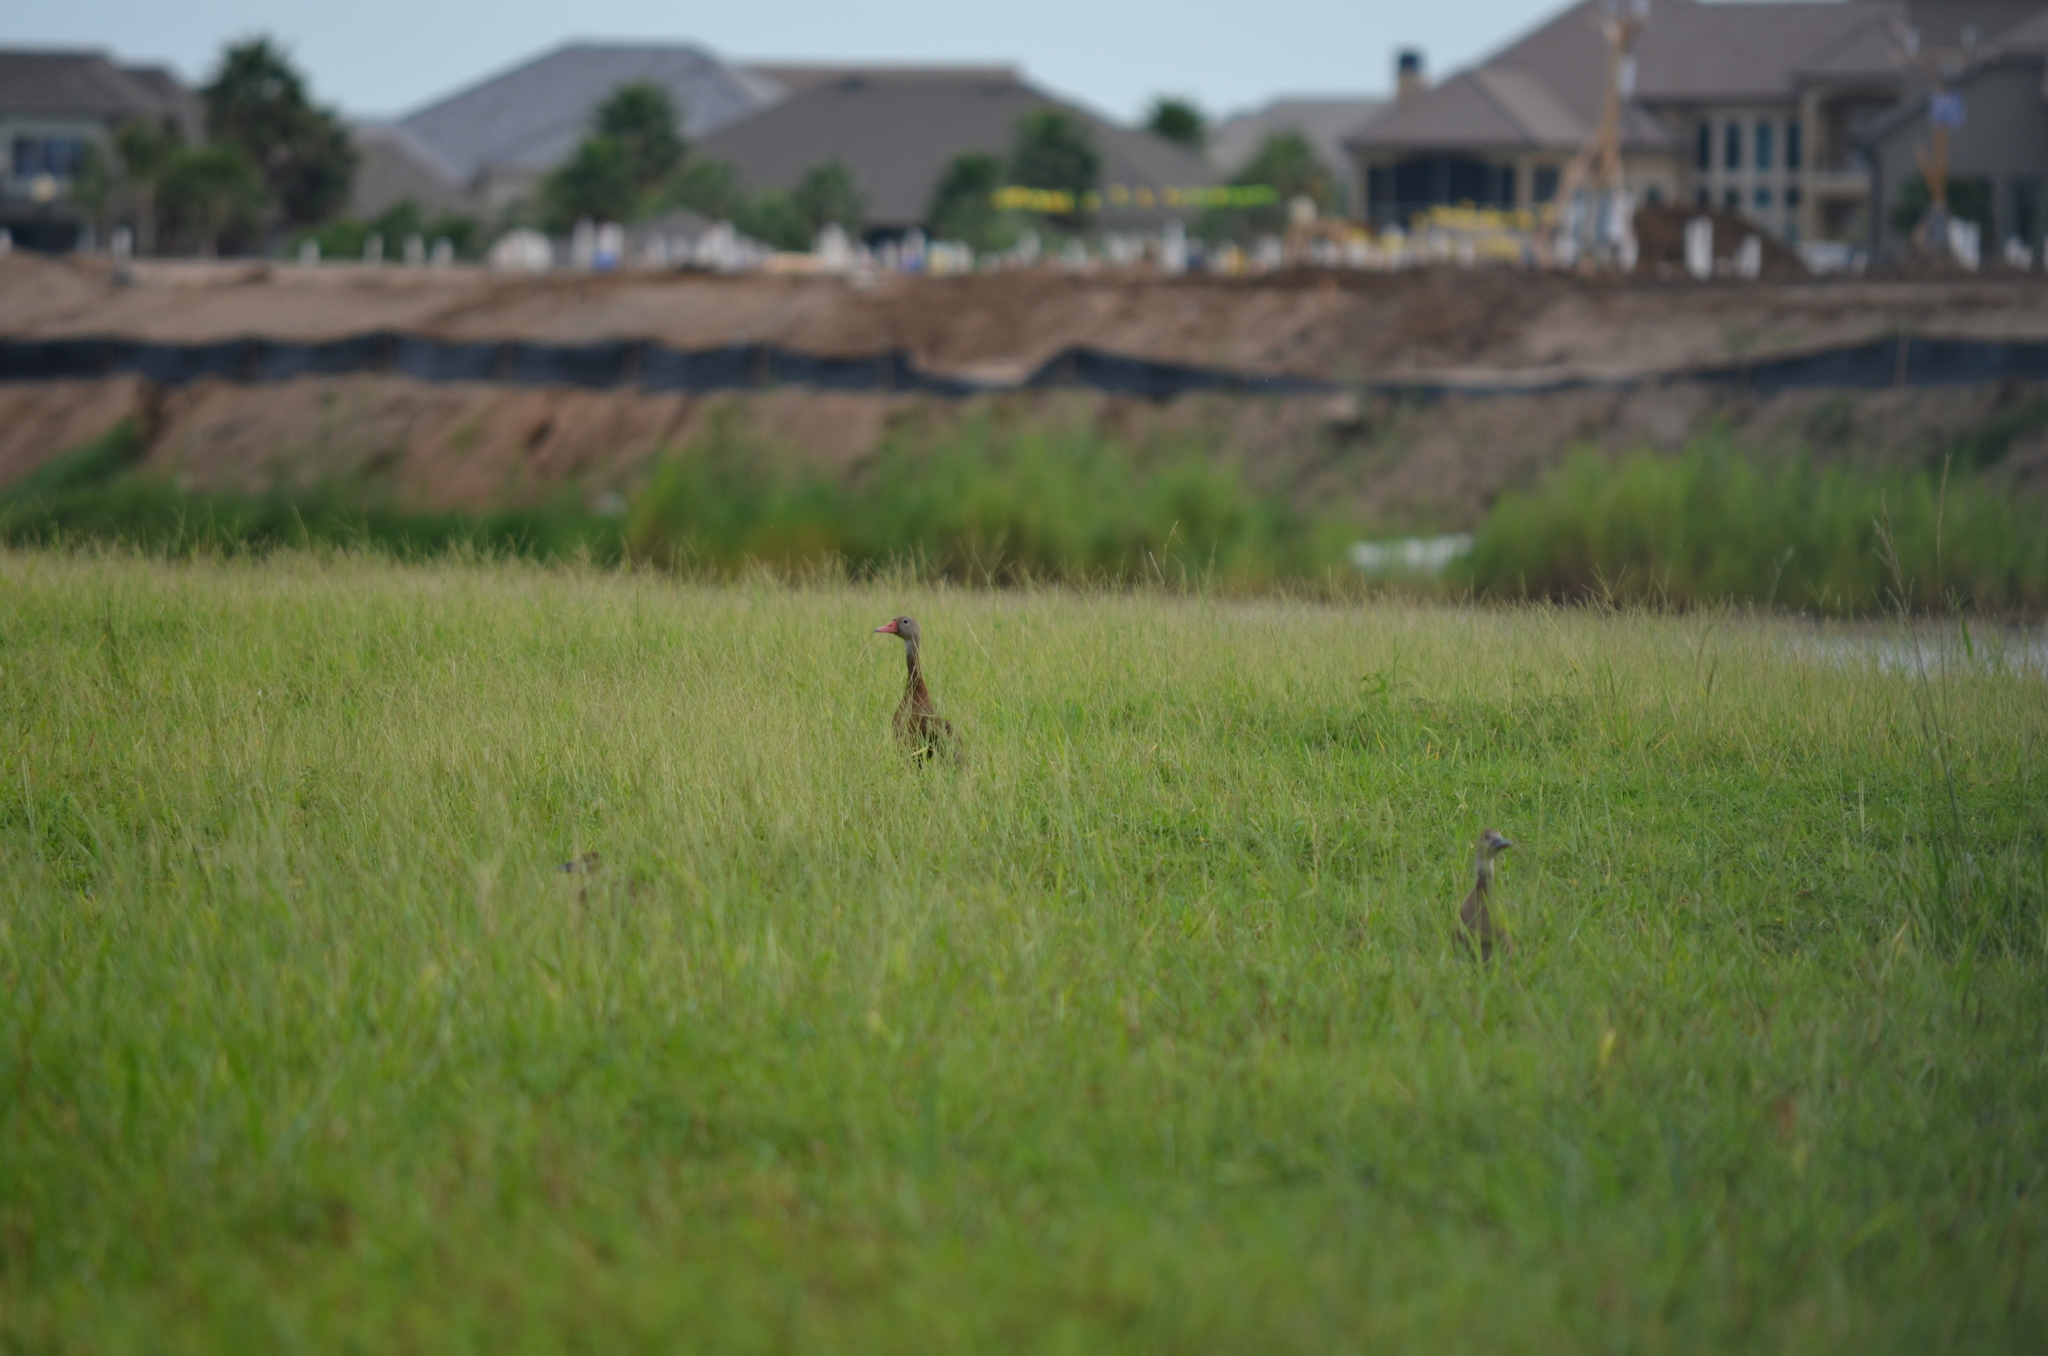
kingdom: Animalia
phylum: Chordata
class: Aves
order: Anseriformes
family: Anatidae
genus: Dendrocygna
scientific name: Dendrocygna autumnalis
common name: Black-bellied whistling duck
